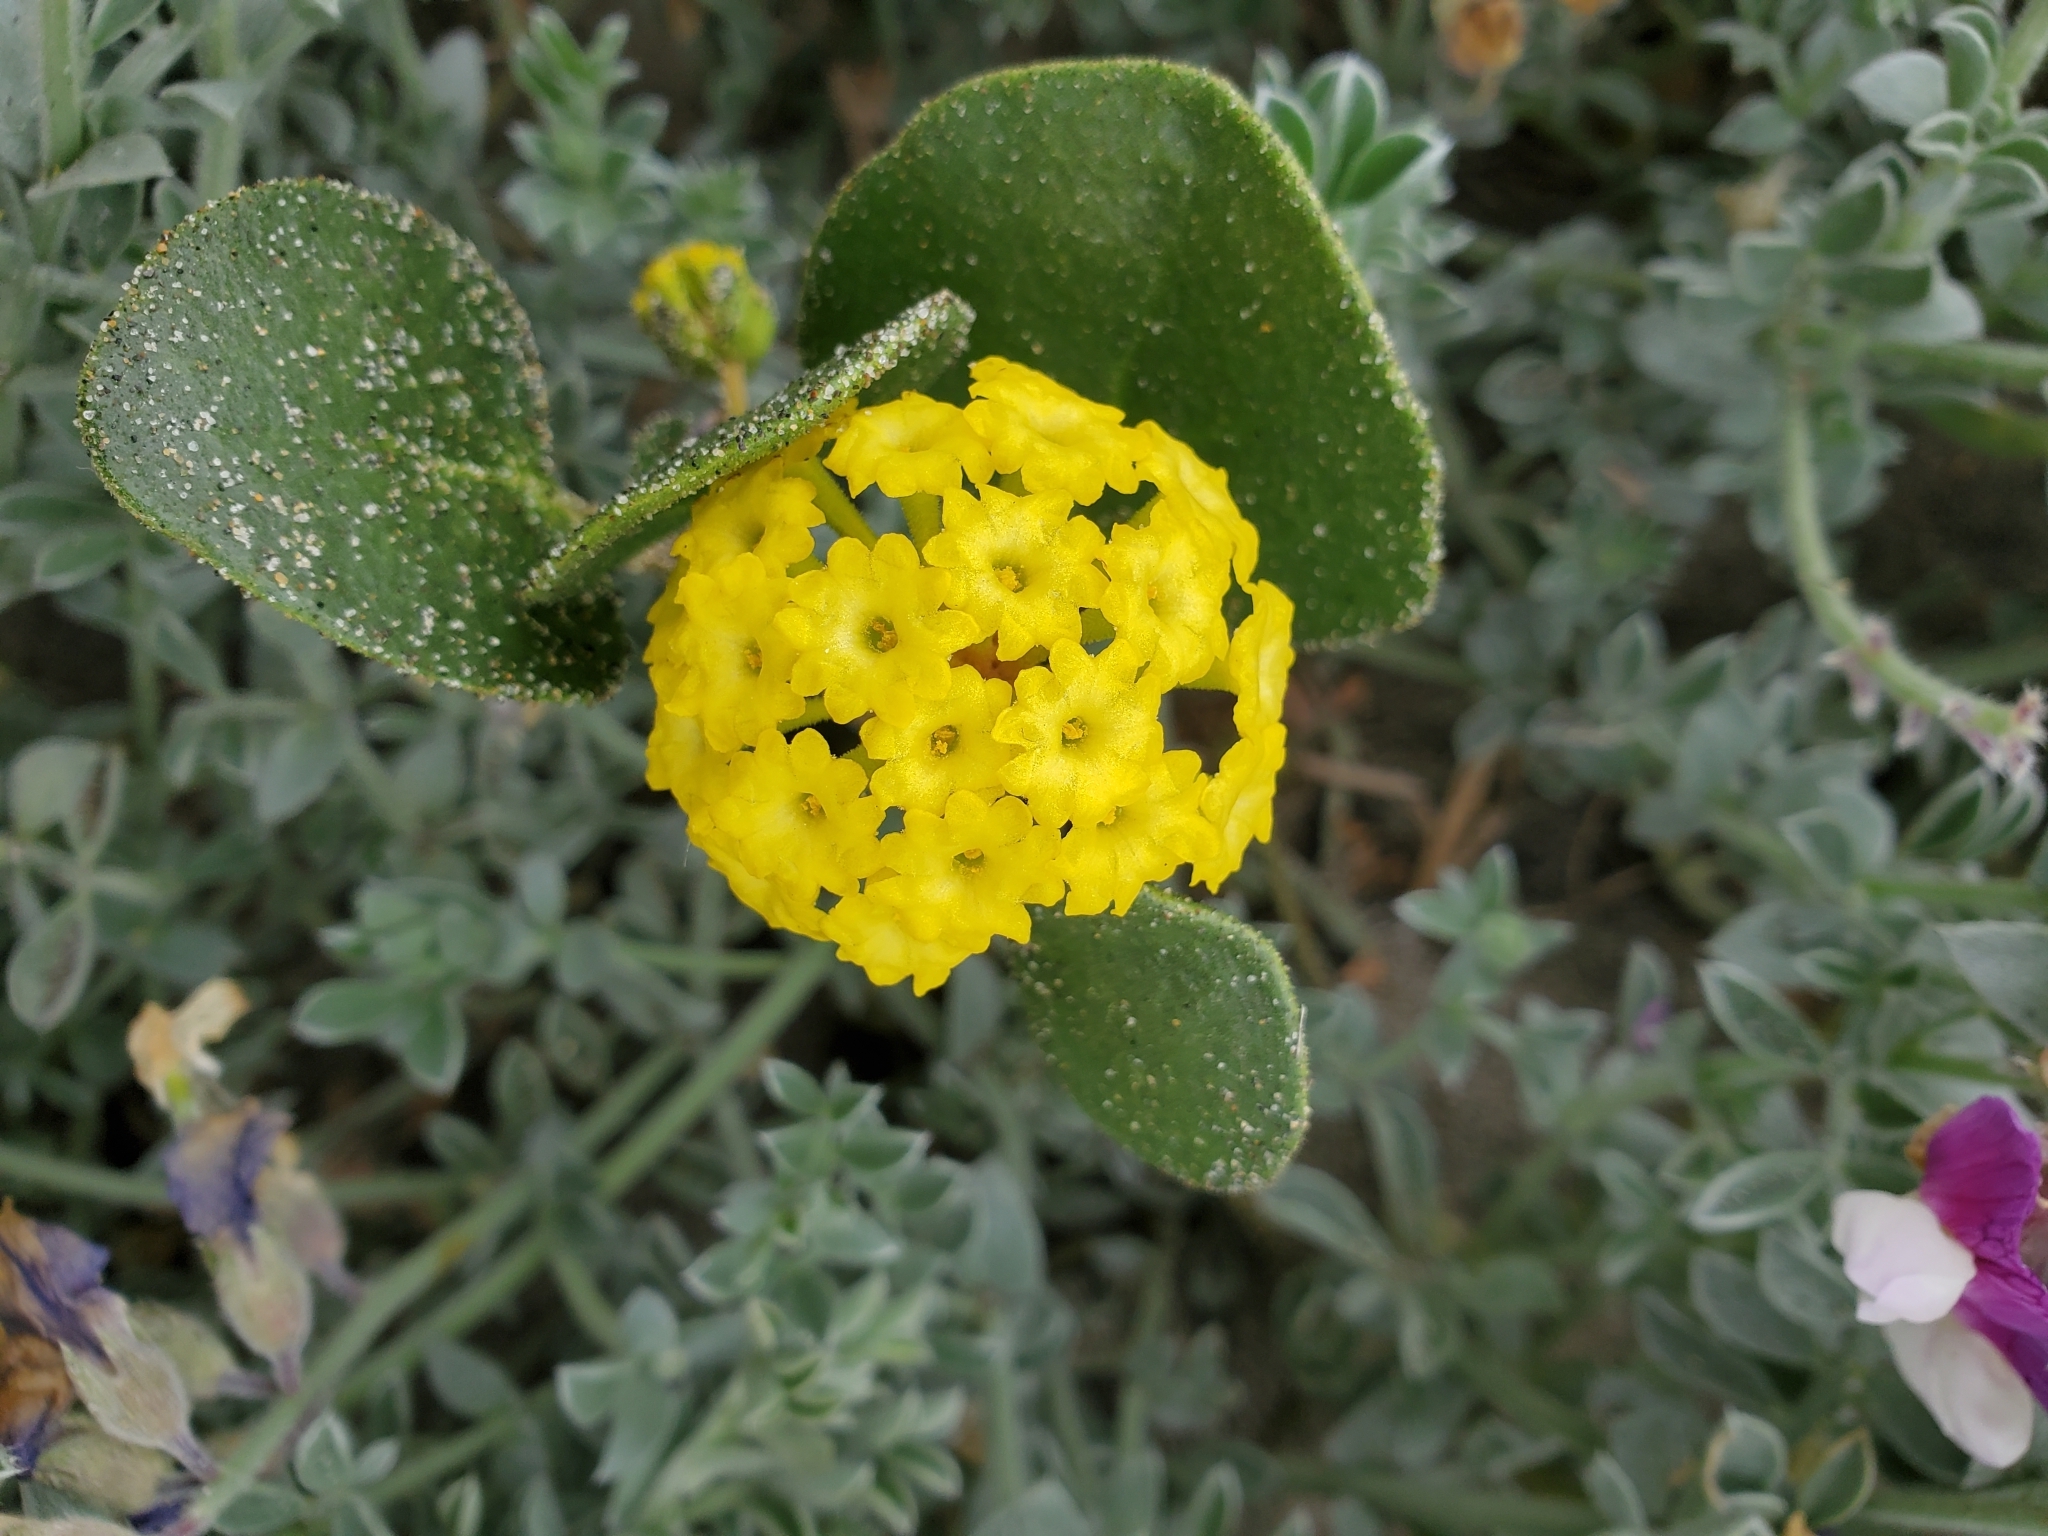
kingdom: Plantae
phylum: Tracheophyta
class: Magnoliopsida
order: Caryophyllales
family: Nyctaginaceae
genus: Abronia
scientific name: Abronia latifolia
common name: Yellow sand-verbena
